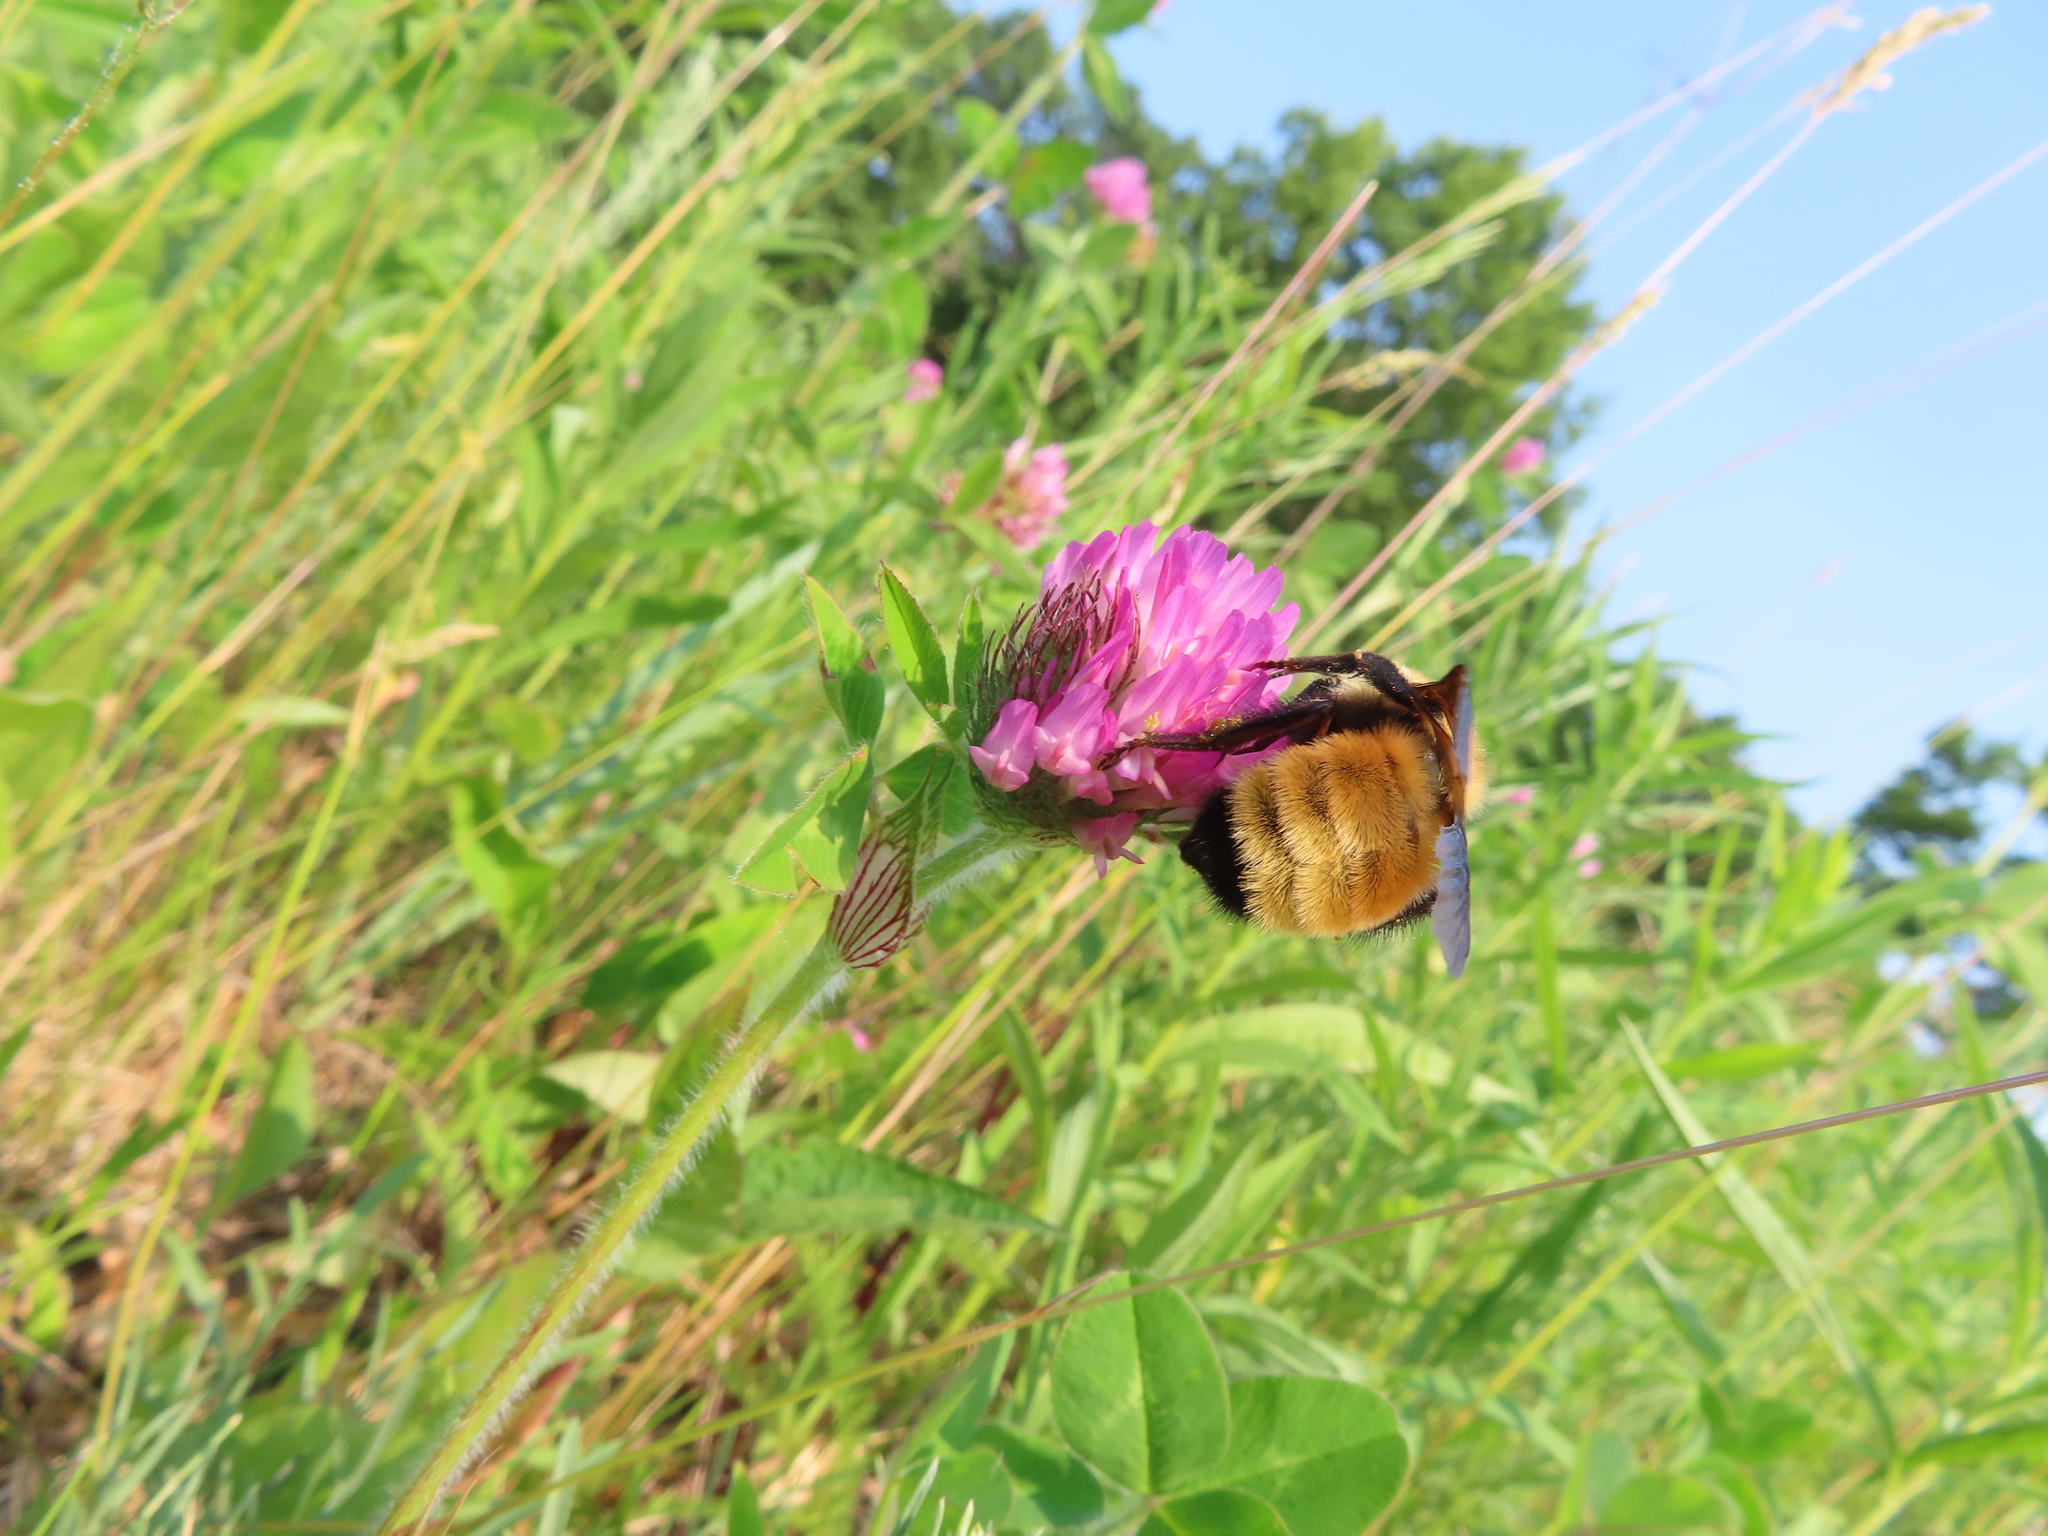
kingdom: Animalia
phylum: Arthropoda
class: Insecta
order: Hymenoptera
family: Apidae
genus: Bombus
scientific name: Bombus fervidus
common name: Yellow bumble bee
